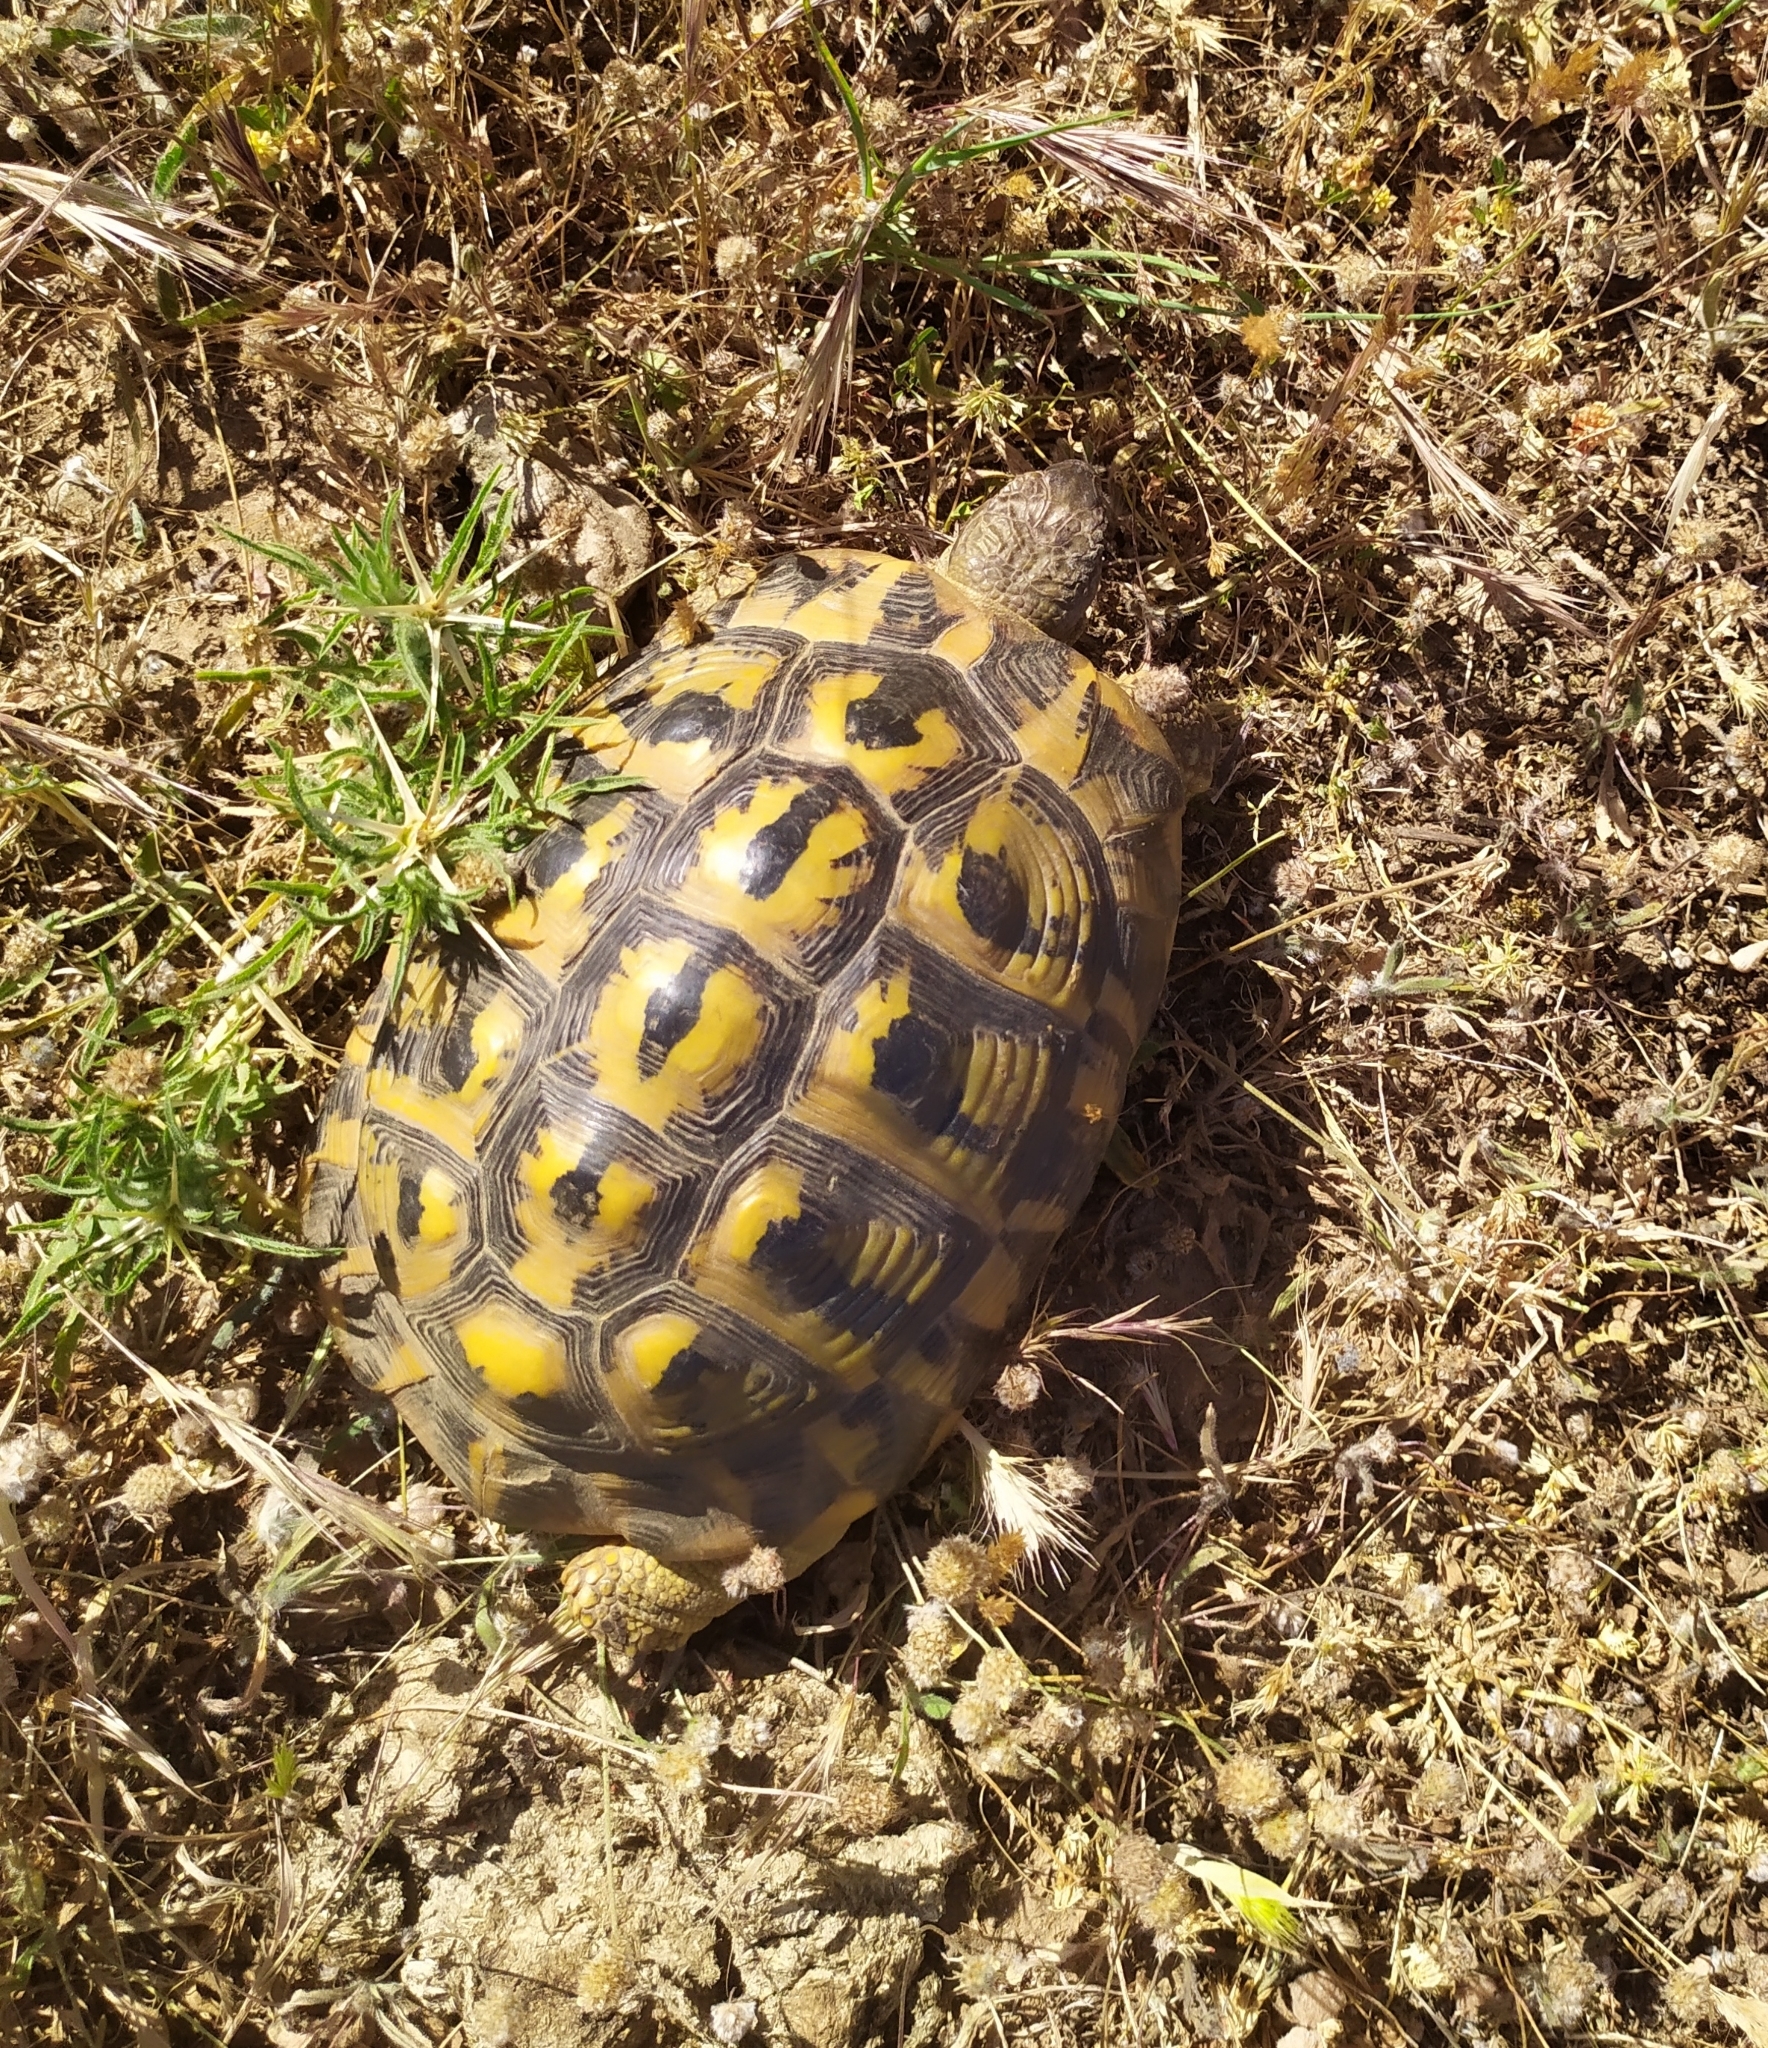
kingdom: Animalia
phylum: Chordata
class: Testudines
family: Testudinidae
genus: Testudo
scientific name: Testudo hermanni
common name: Hermann's tortoise
